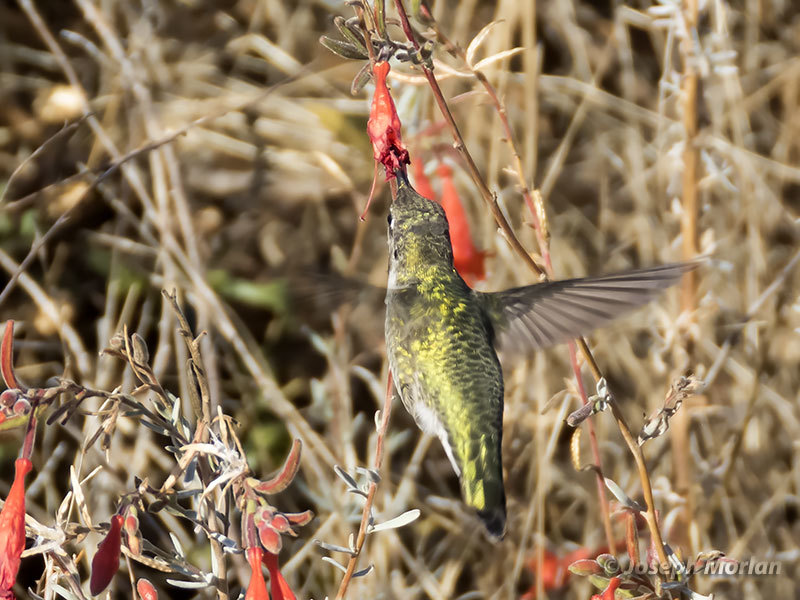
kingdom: Animalia
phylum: Chordata
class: Aves
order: Apodiformes
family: Trochilidae
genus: Calypte
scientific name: Calypte anna
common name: Anna's hummingbird
